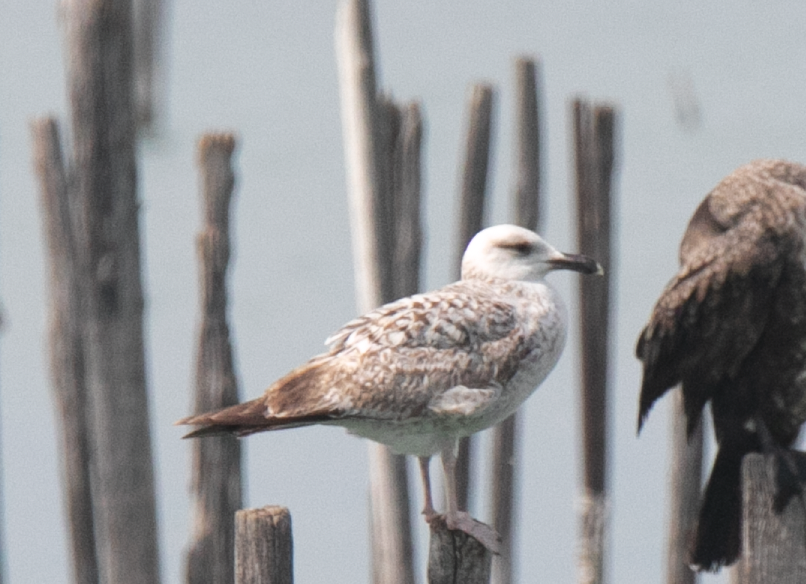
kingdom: Animalia
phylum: Chordata
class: Aves
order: Charadriiformes
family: Laridae
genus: Larus
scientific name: Larus michahellis
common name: Yellow-legged gull
